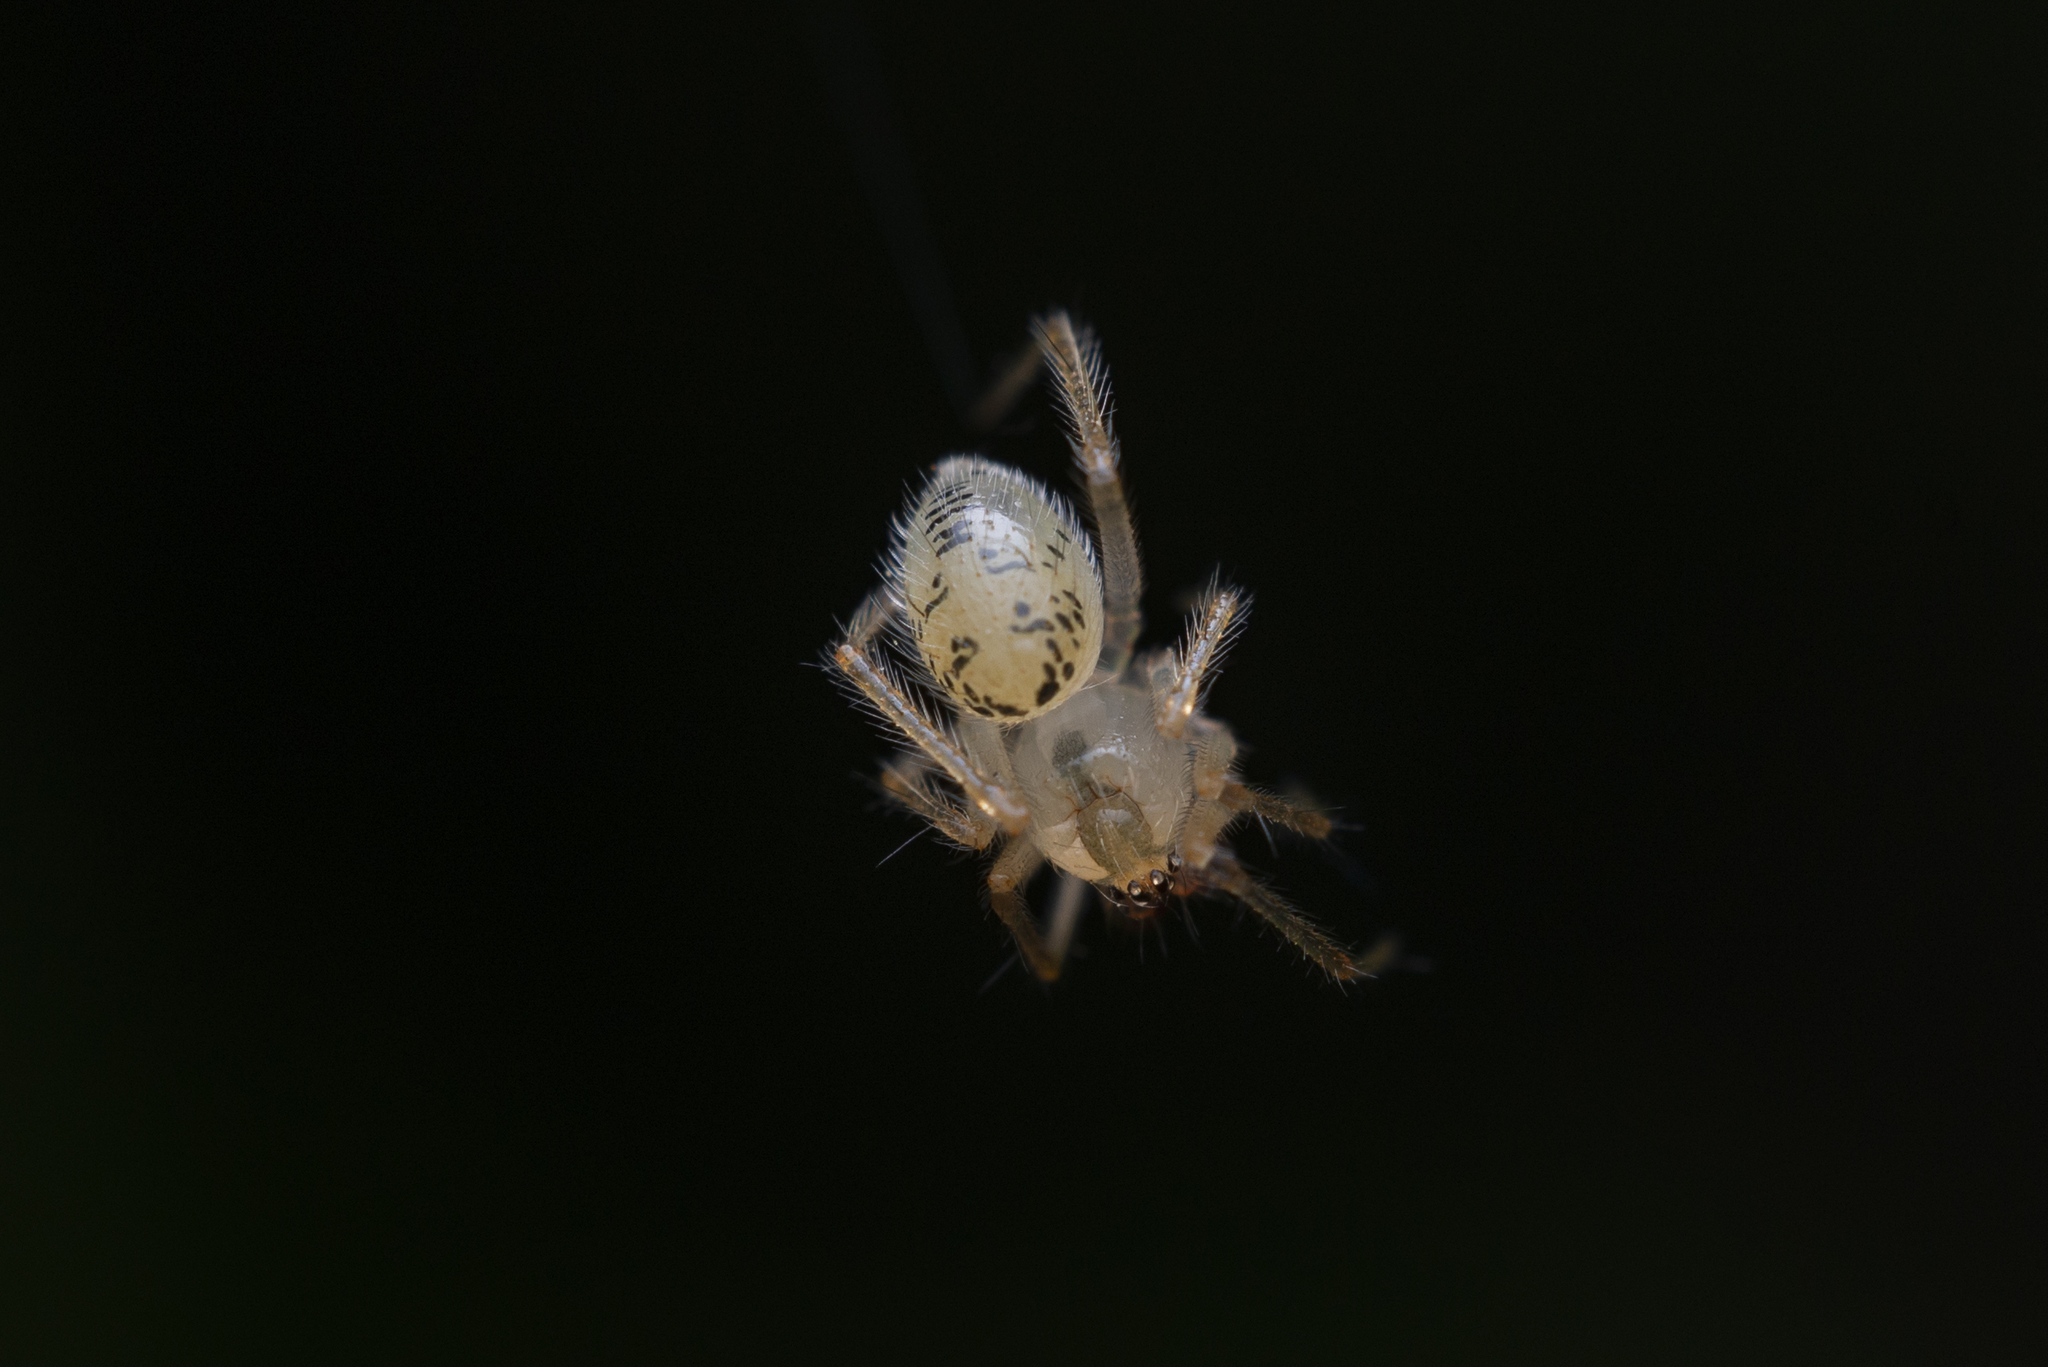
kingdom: Animalia
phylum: Arthropoda
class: Arachnida
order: Araneae
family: Theridiidae
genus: Phycosoma
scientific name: Phycosoma digitula
